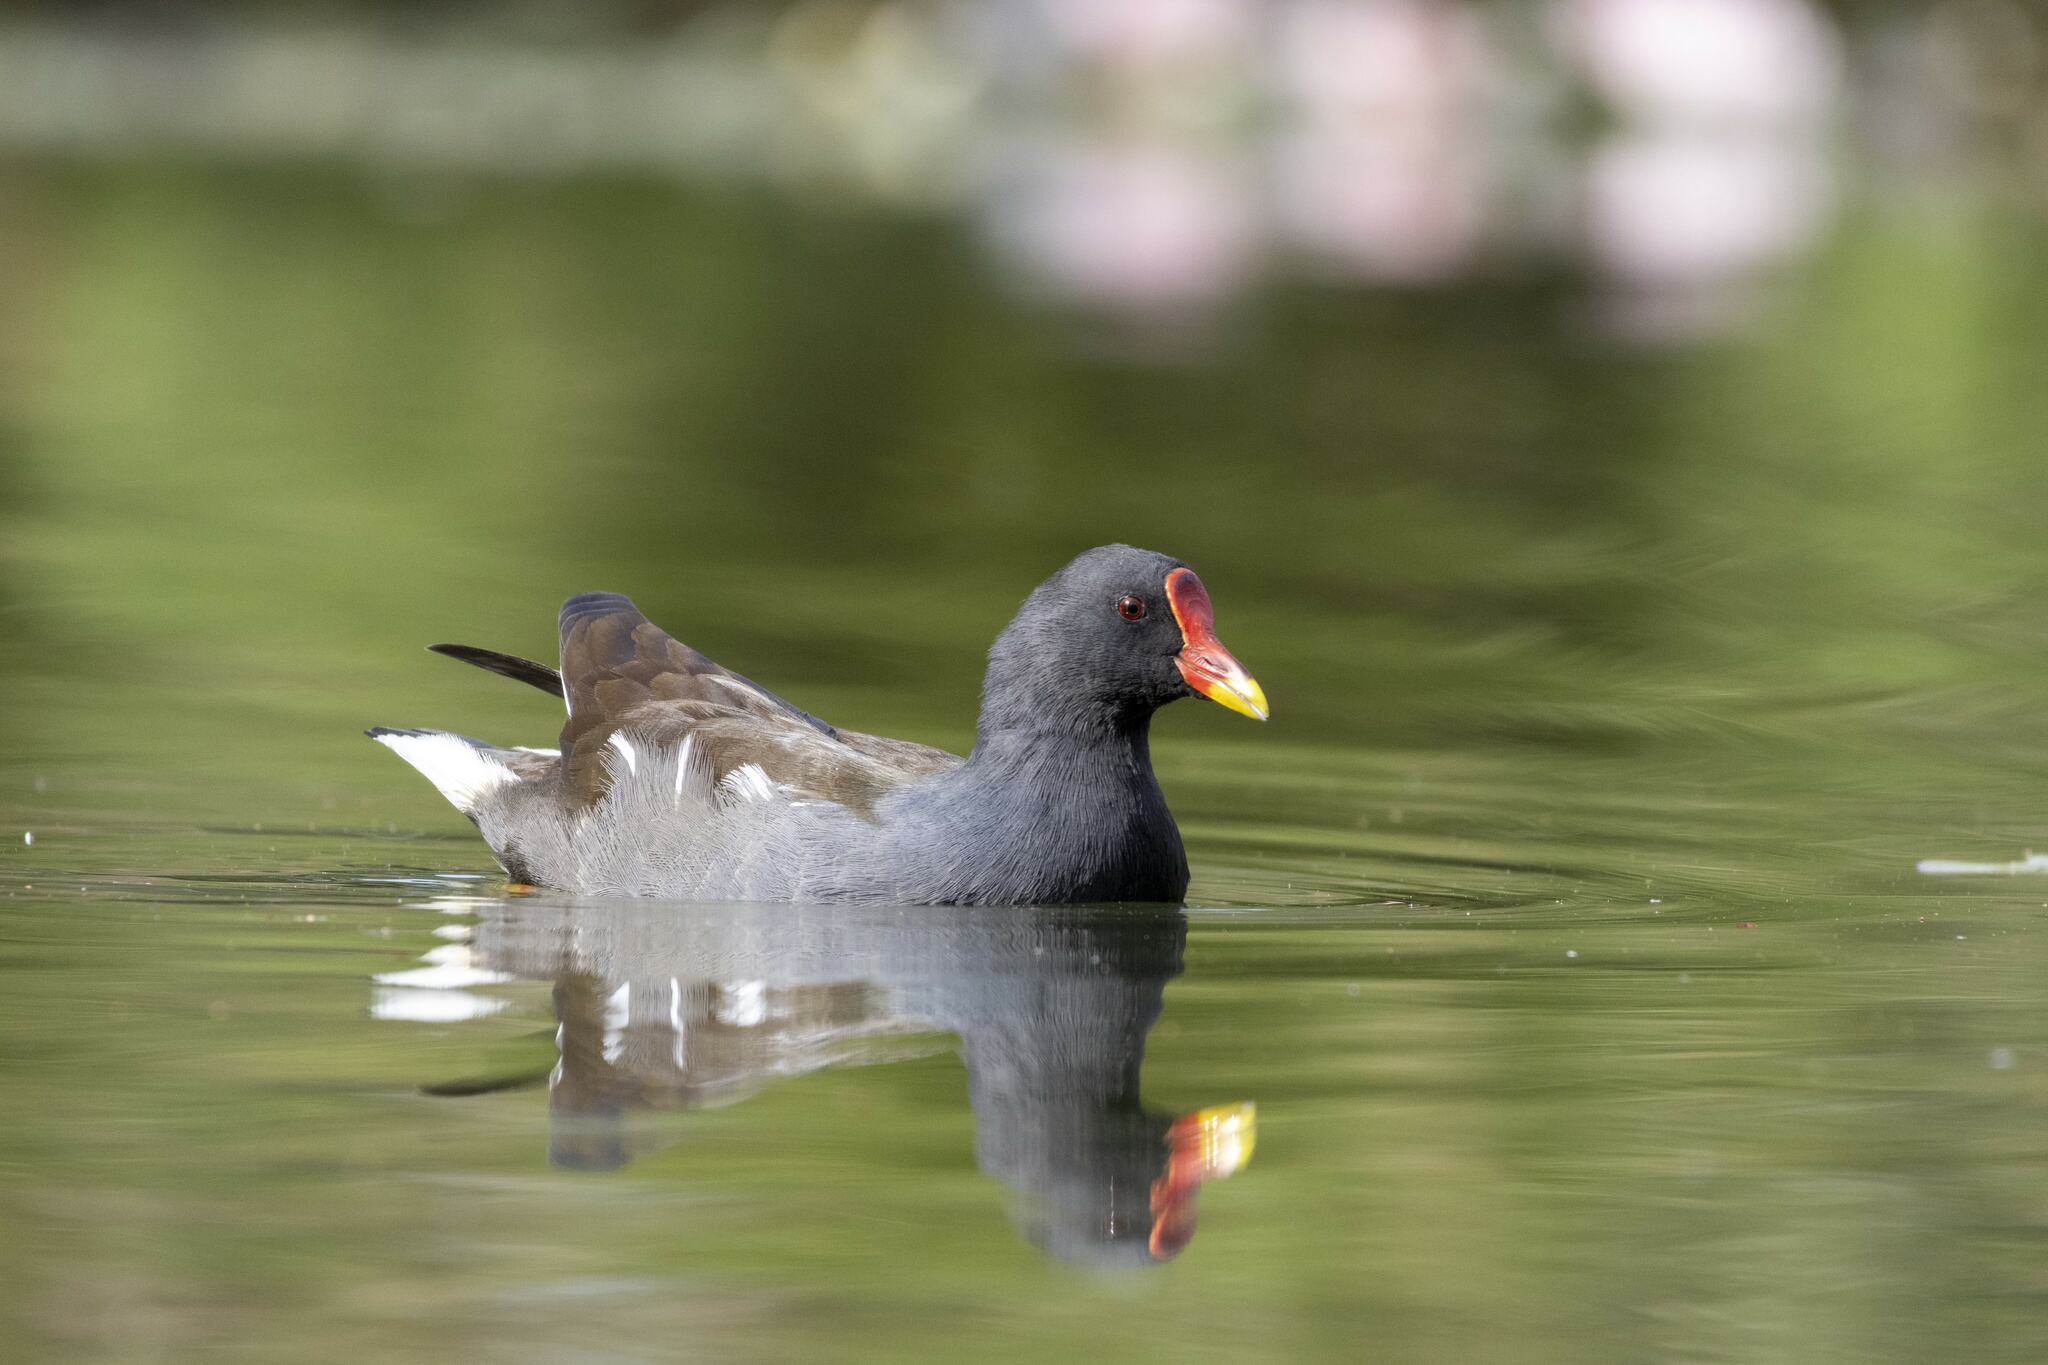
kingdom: Animalia
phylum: Chordata
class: Aves
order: Gruiformes
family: Rallidae
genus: Gallinula
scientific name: Gallinula chloropus
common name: Common moorhen
